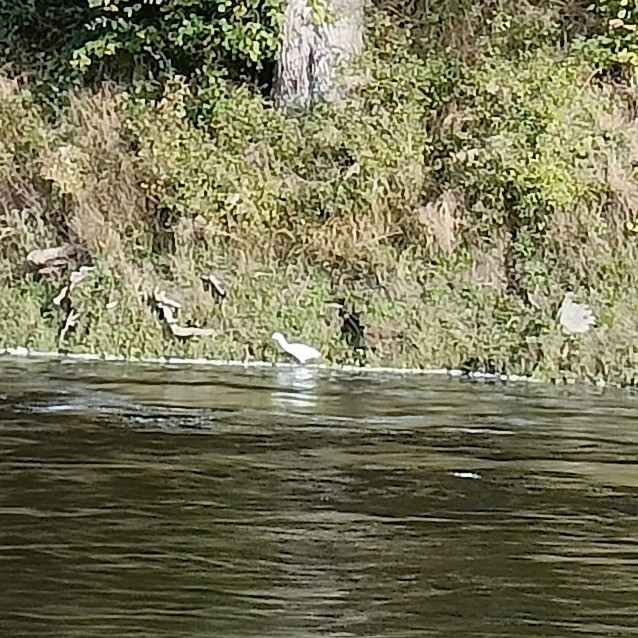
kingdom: Animalia
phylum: Chordata
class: Aves
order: Pelecaniformes
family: Ardeidae
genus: Egretta
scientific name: Egretta garzetta
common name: Little egret
